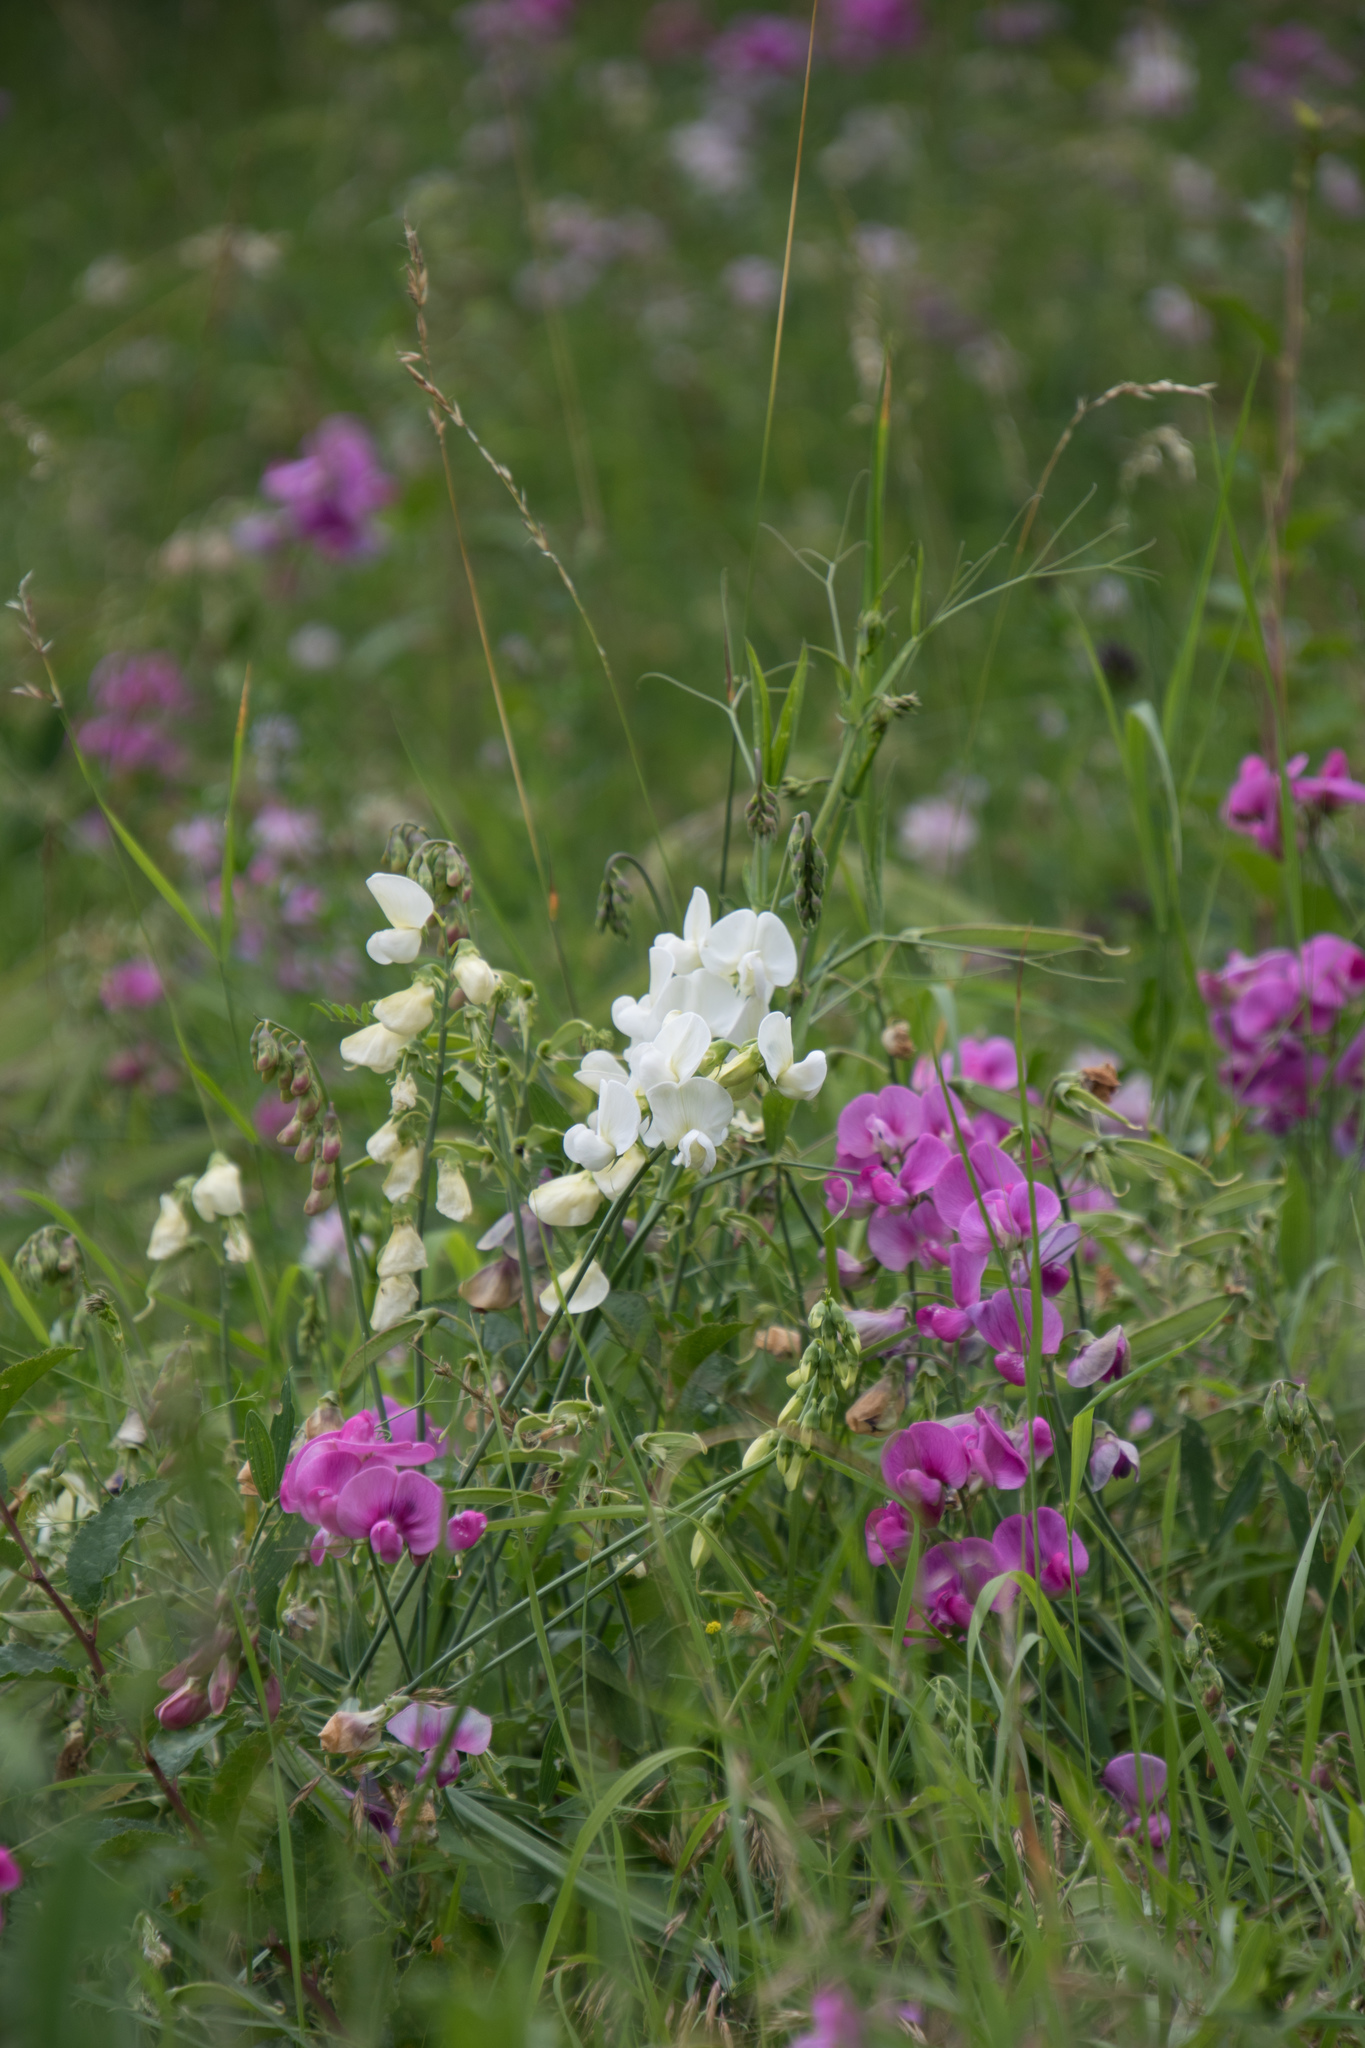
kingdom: Plantae
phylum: Tracheophyta
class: Magnoliopsida
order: Fabales
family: Fabaceae
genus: Lathyrus
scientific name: Lathyrus latifolius
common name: Perennial pea
